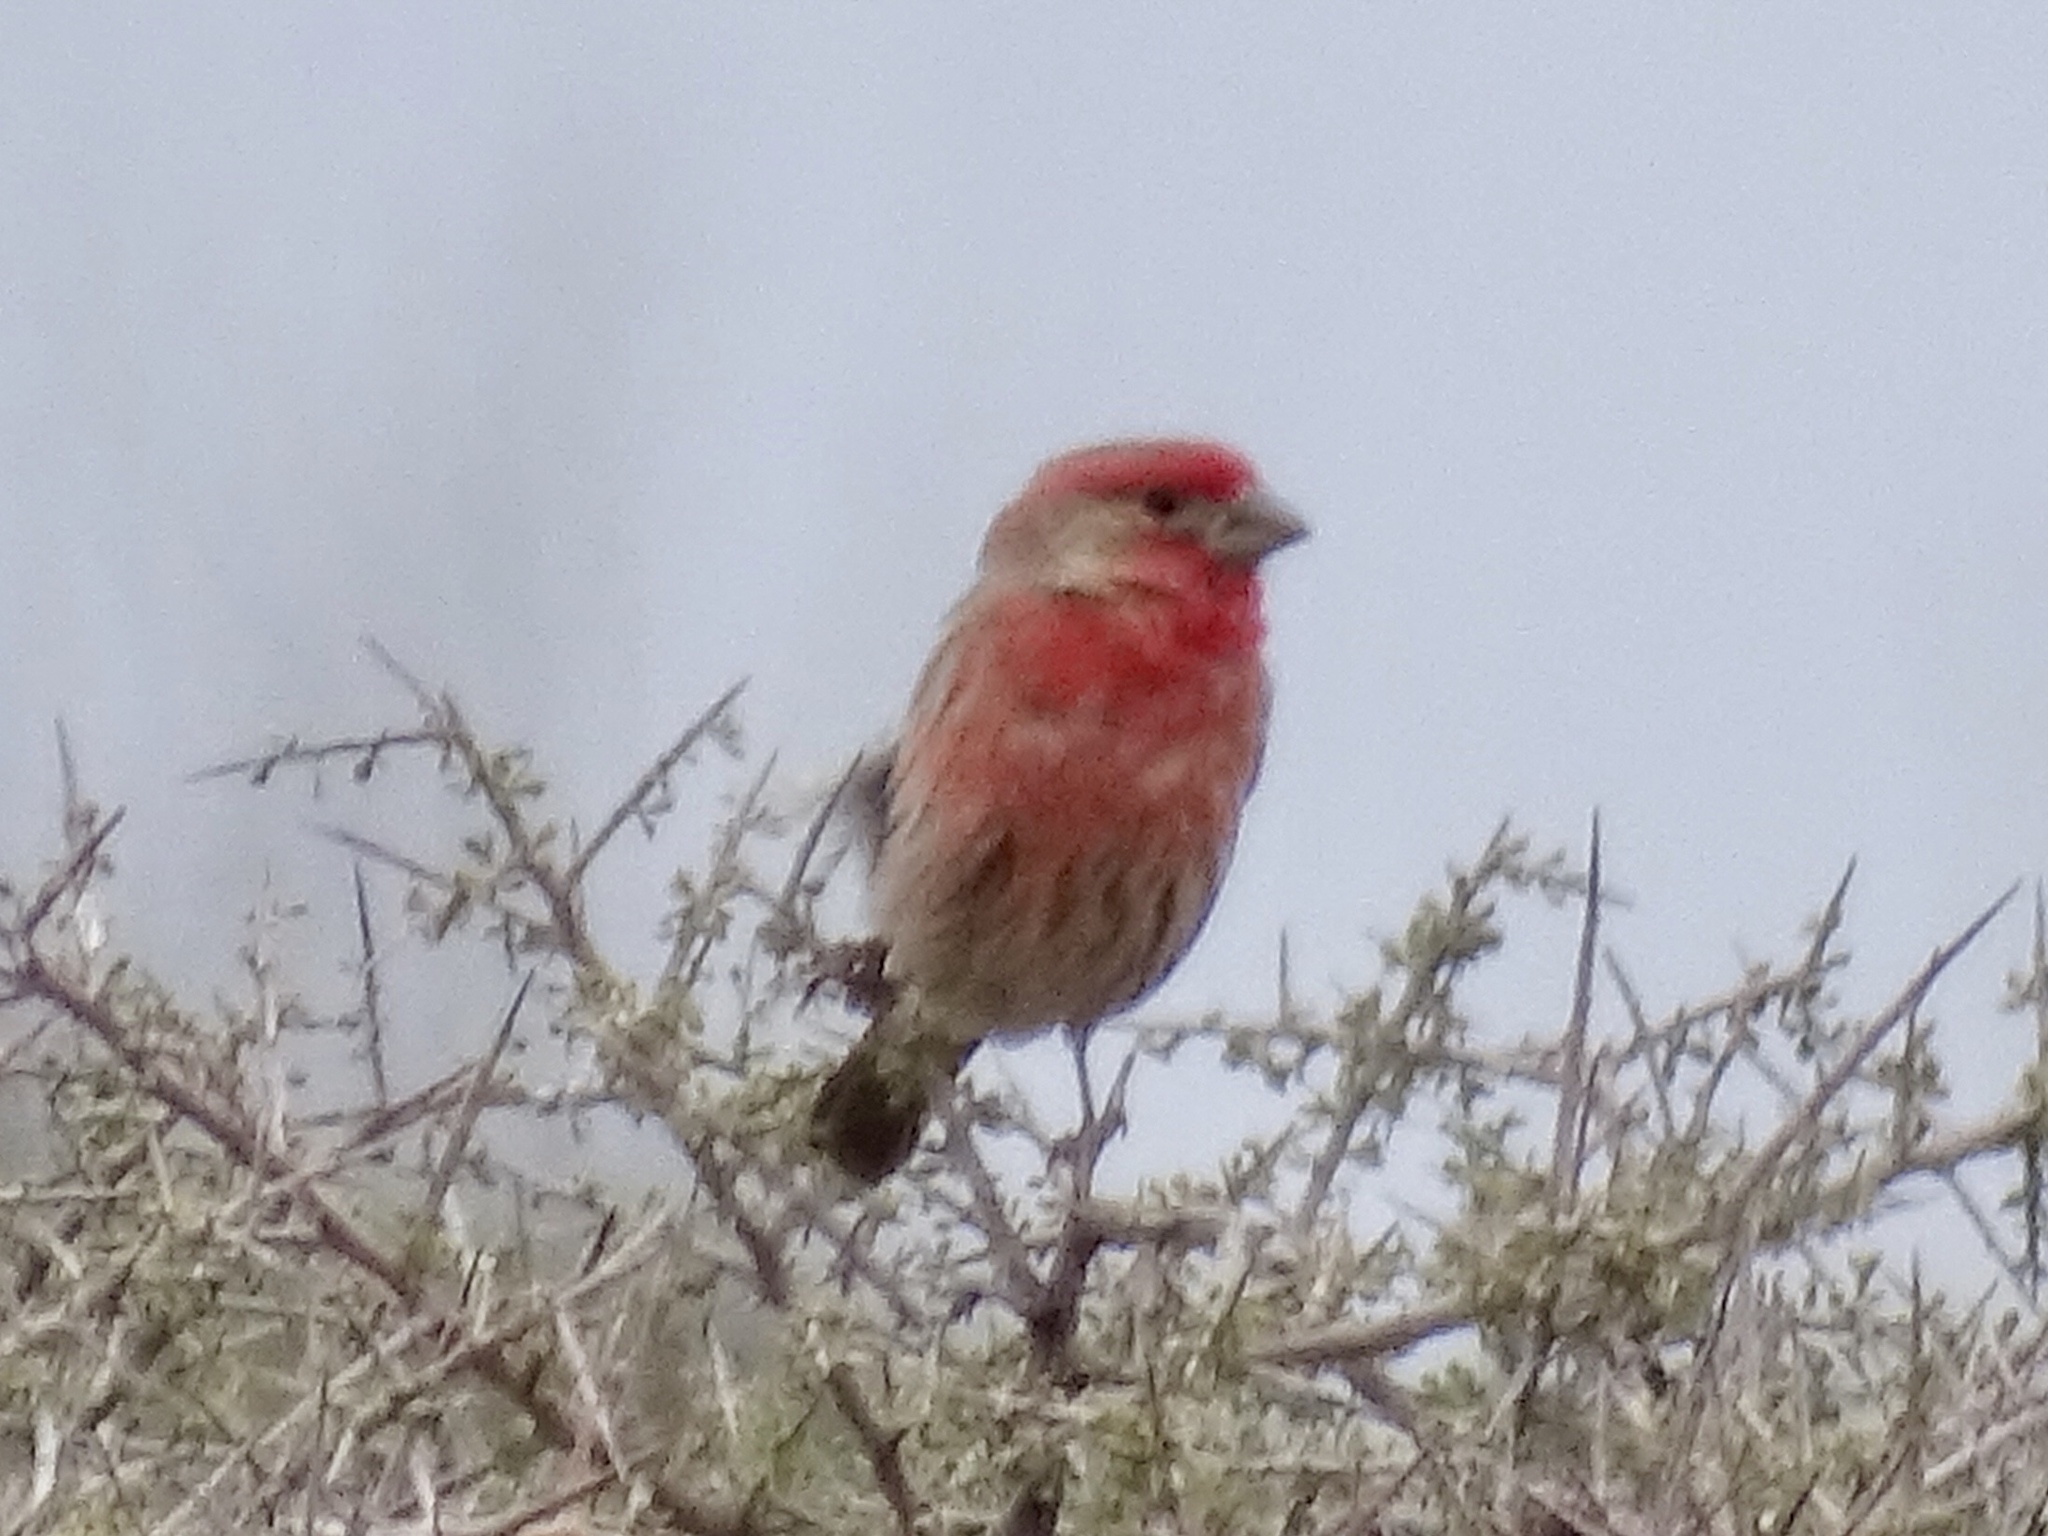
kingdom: Animalia
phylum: Chordata
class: Aves
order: Passeriformes
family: Fringillidae
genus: Haemorhous
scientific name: Haemorhous mexicanus
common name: House finch
